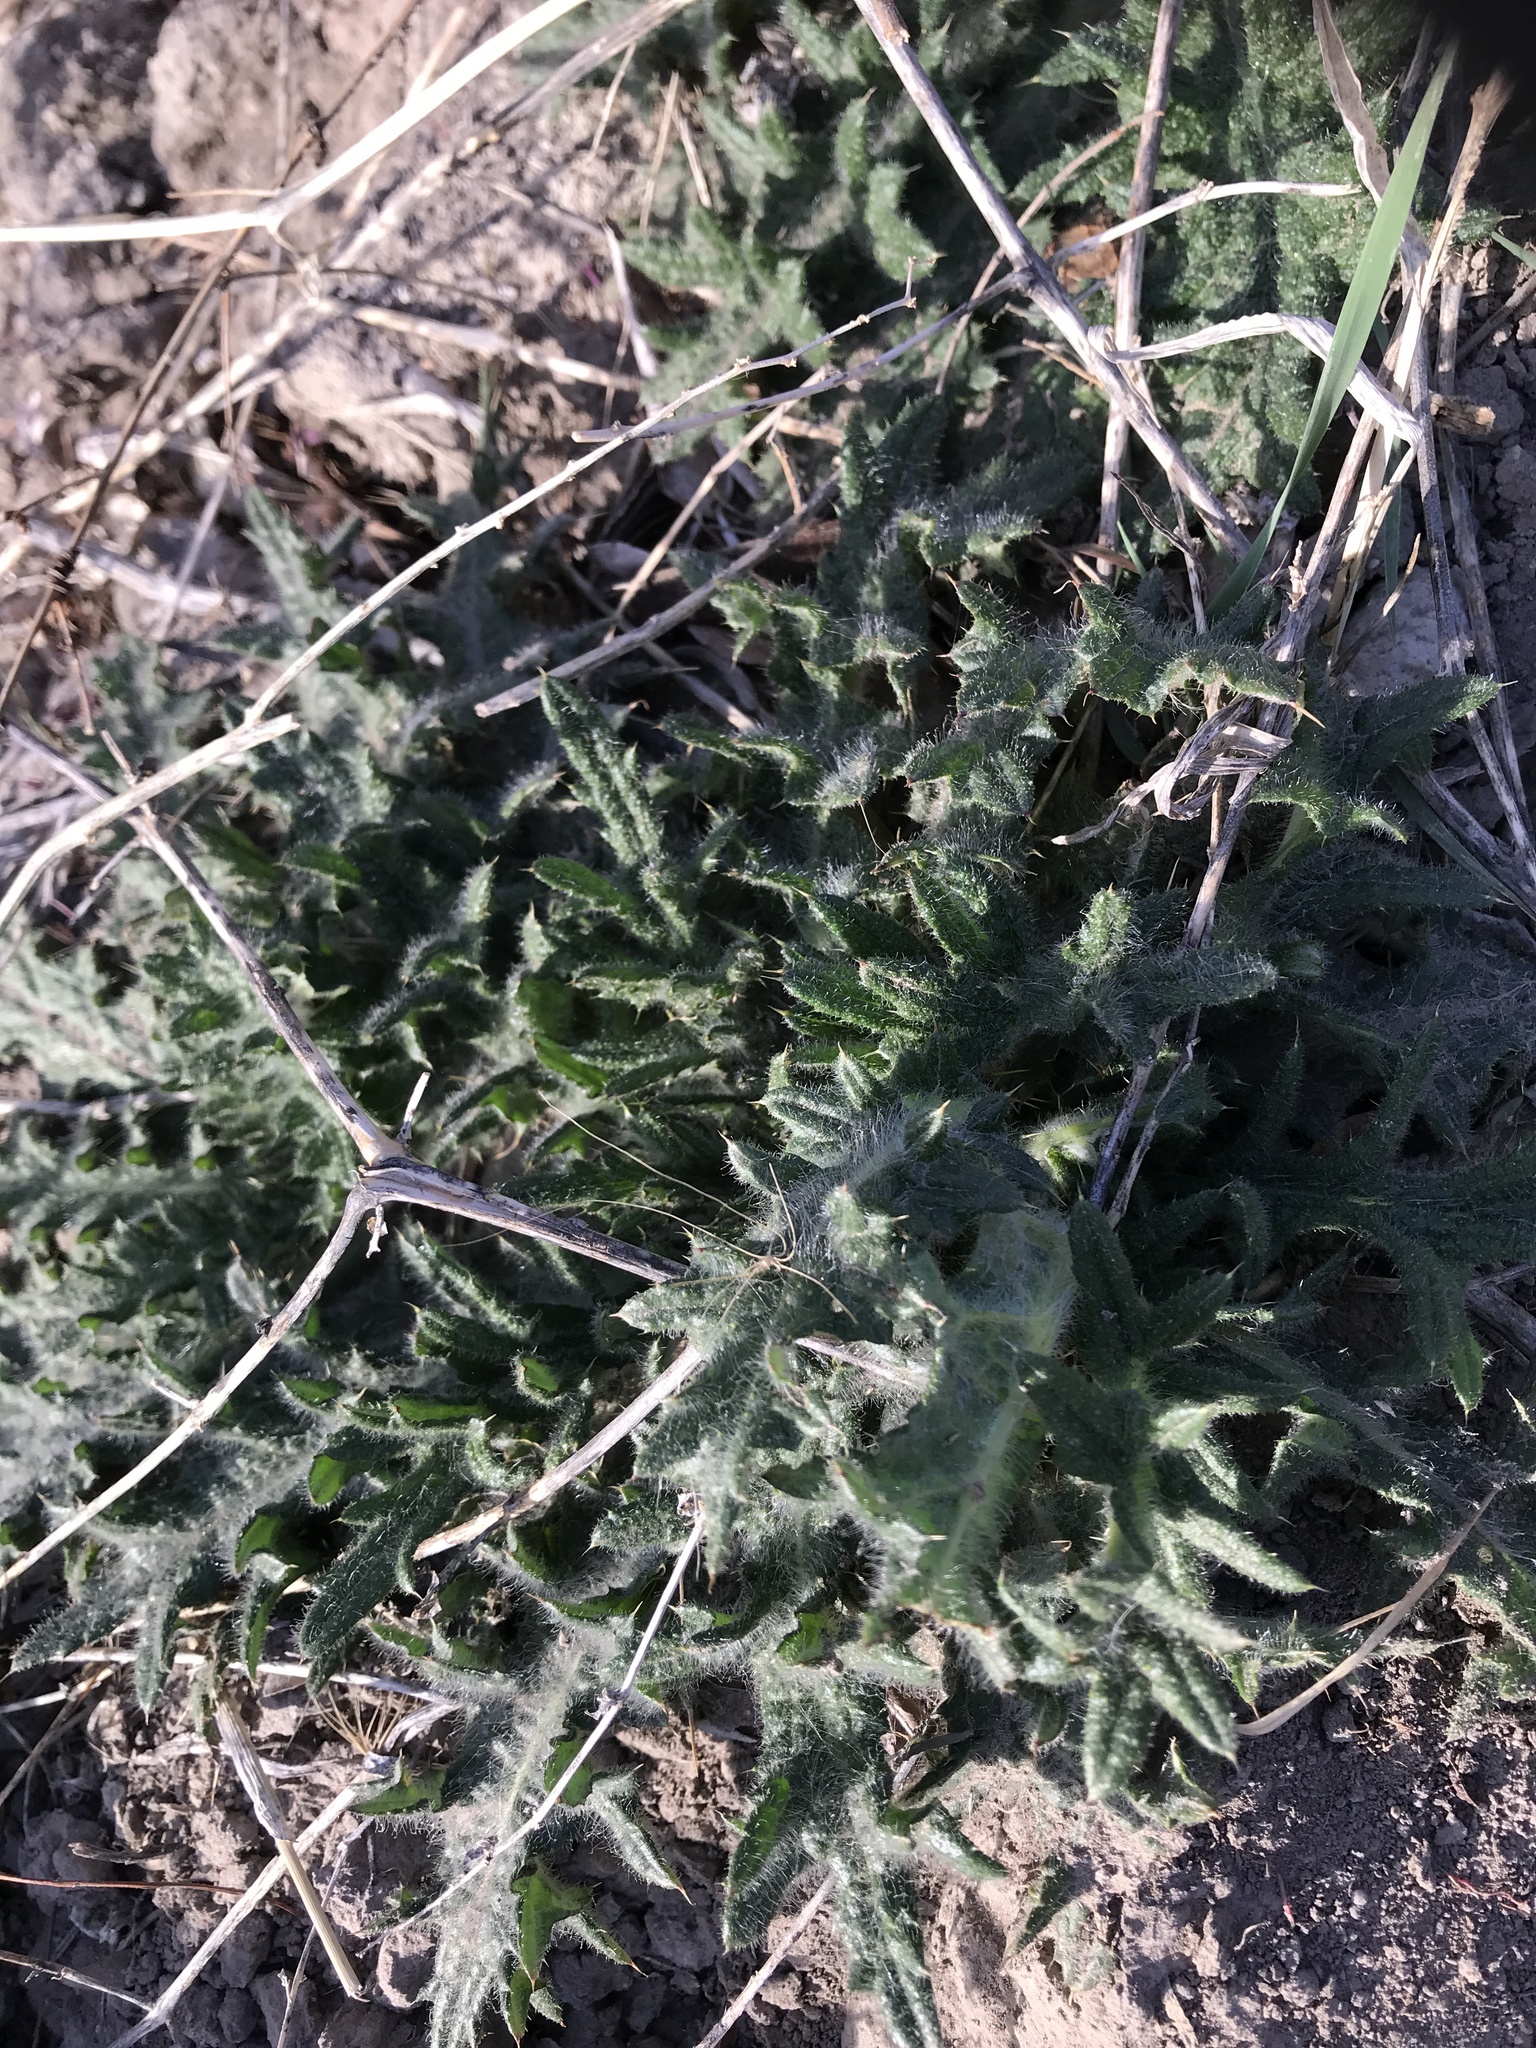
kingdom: Plantae
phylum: Tracheophyta
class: Magnoliopsida
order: Asterales
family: Asteraceae
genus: Cirsium
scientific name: Cirsium vulgare
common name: Bull thistle
